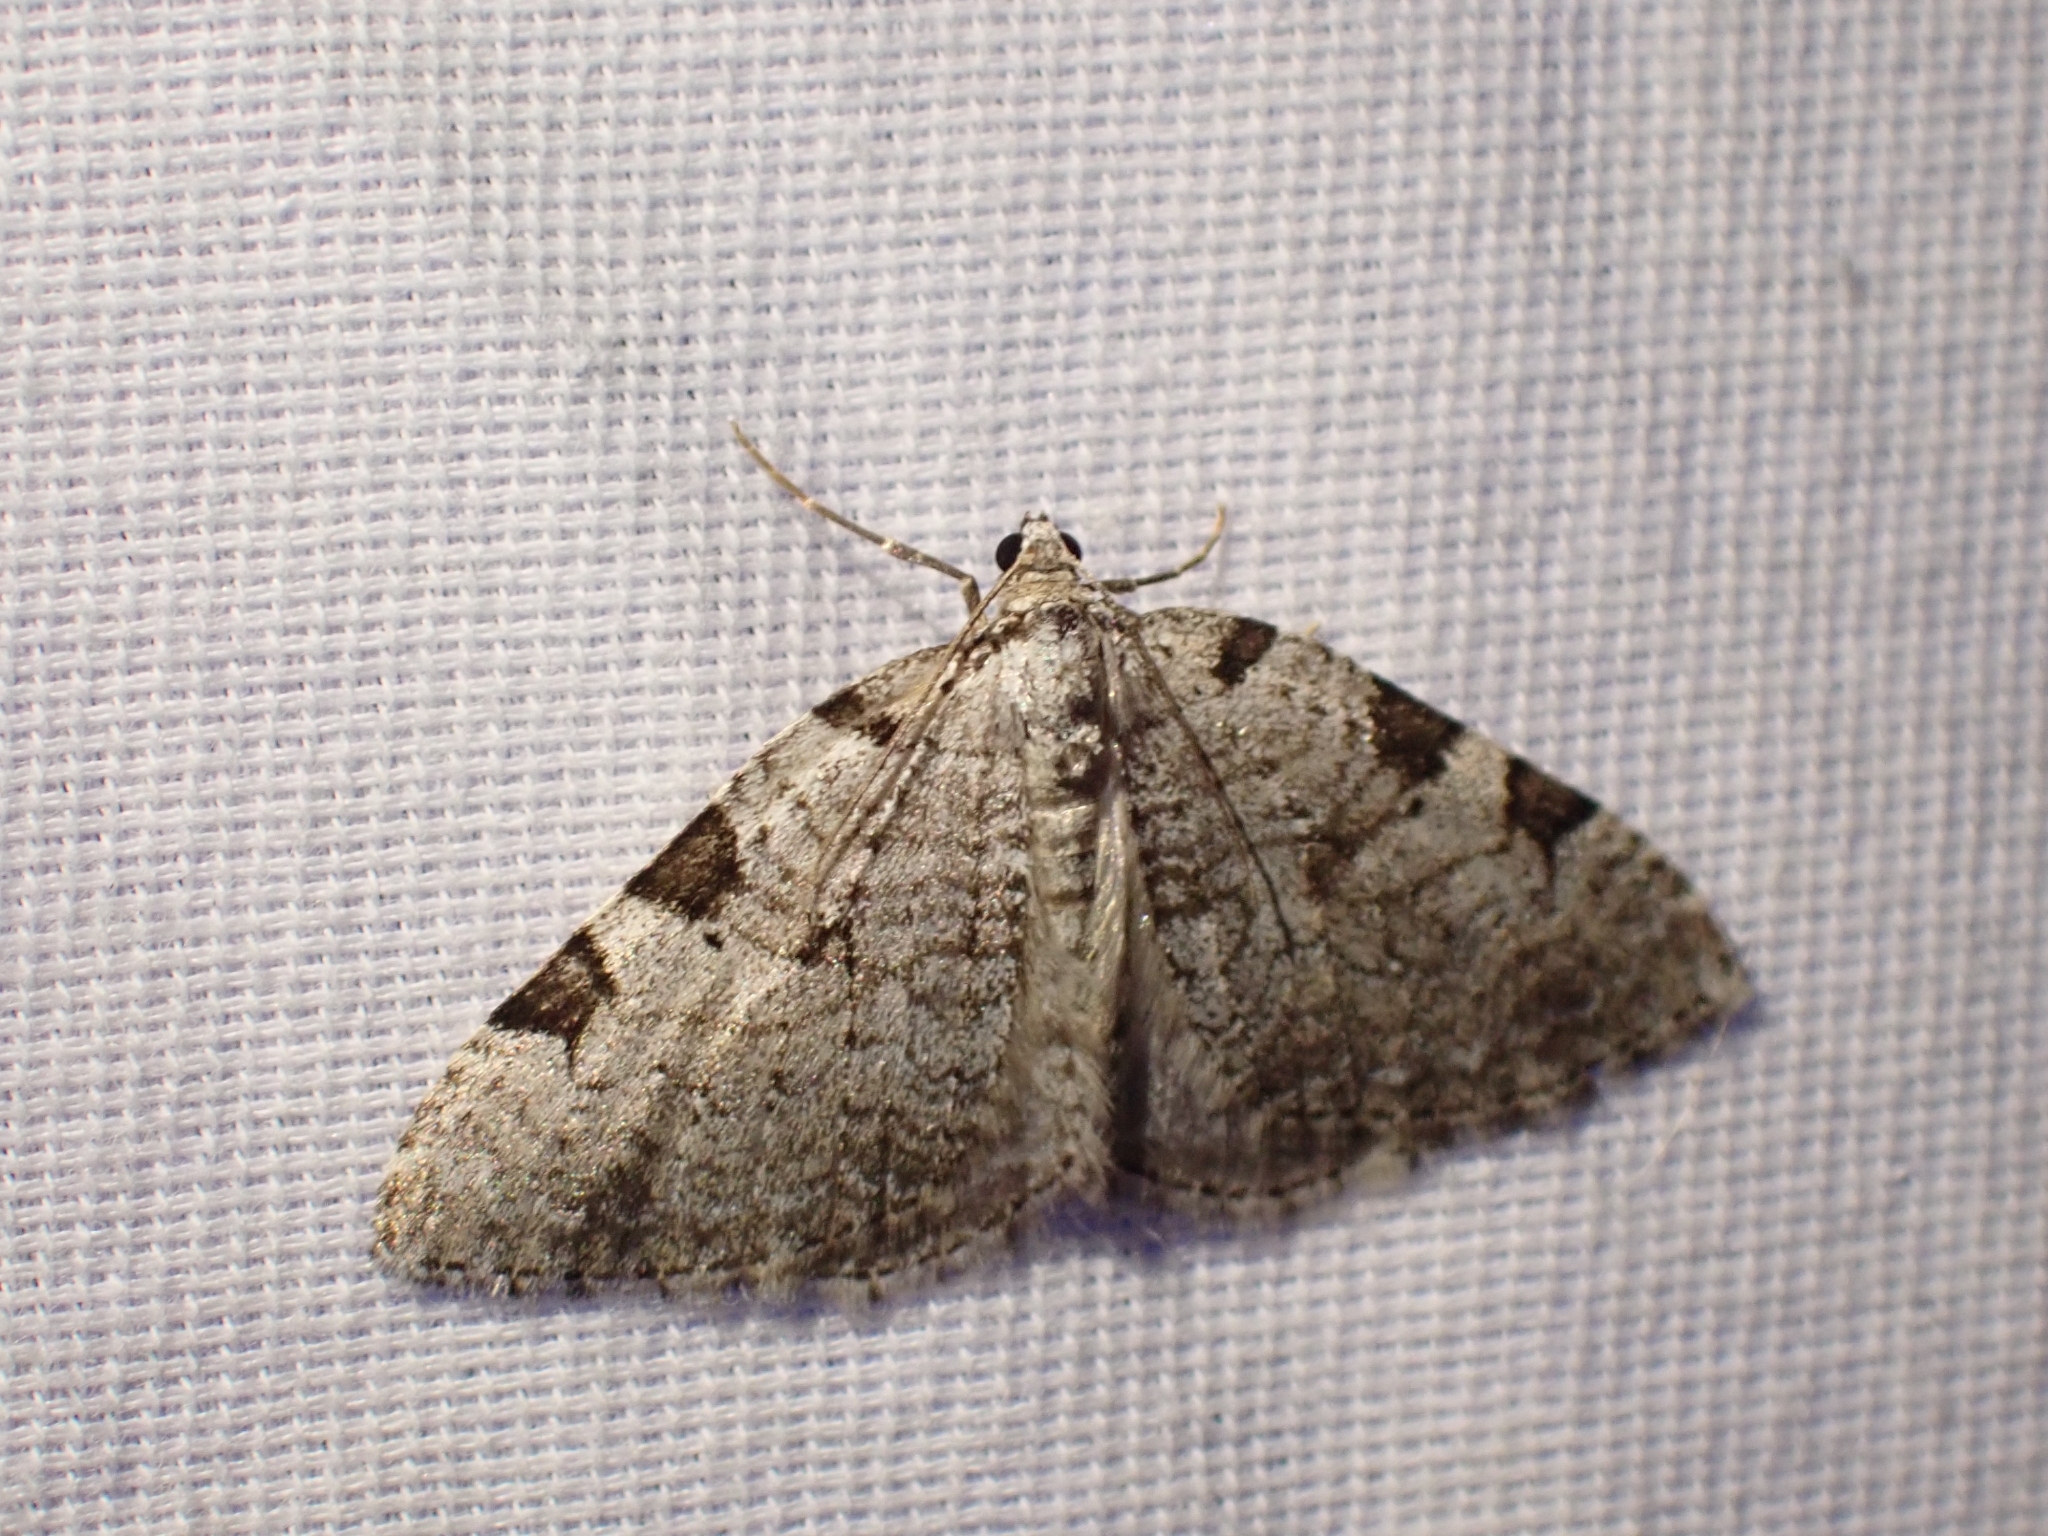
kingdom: Animalia
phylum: Arthropoda
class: Insecta
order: Lepidoptera
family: Geometridae
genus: Perizoma
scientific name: Perizoma costiguttata
